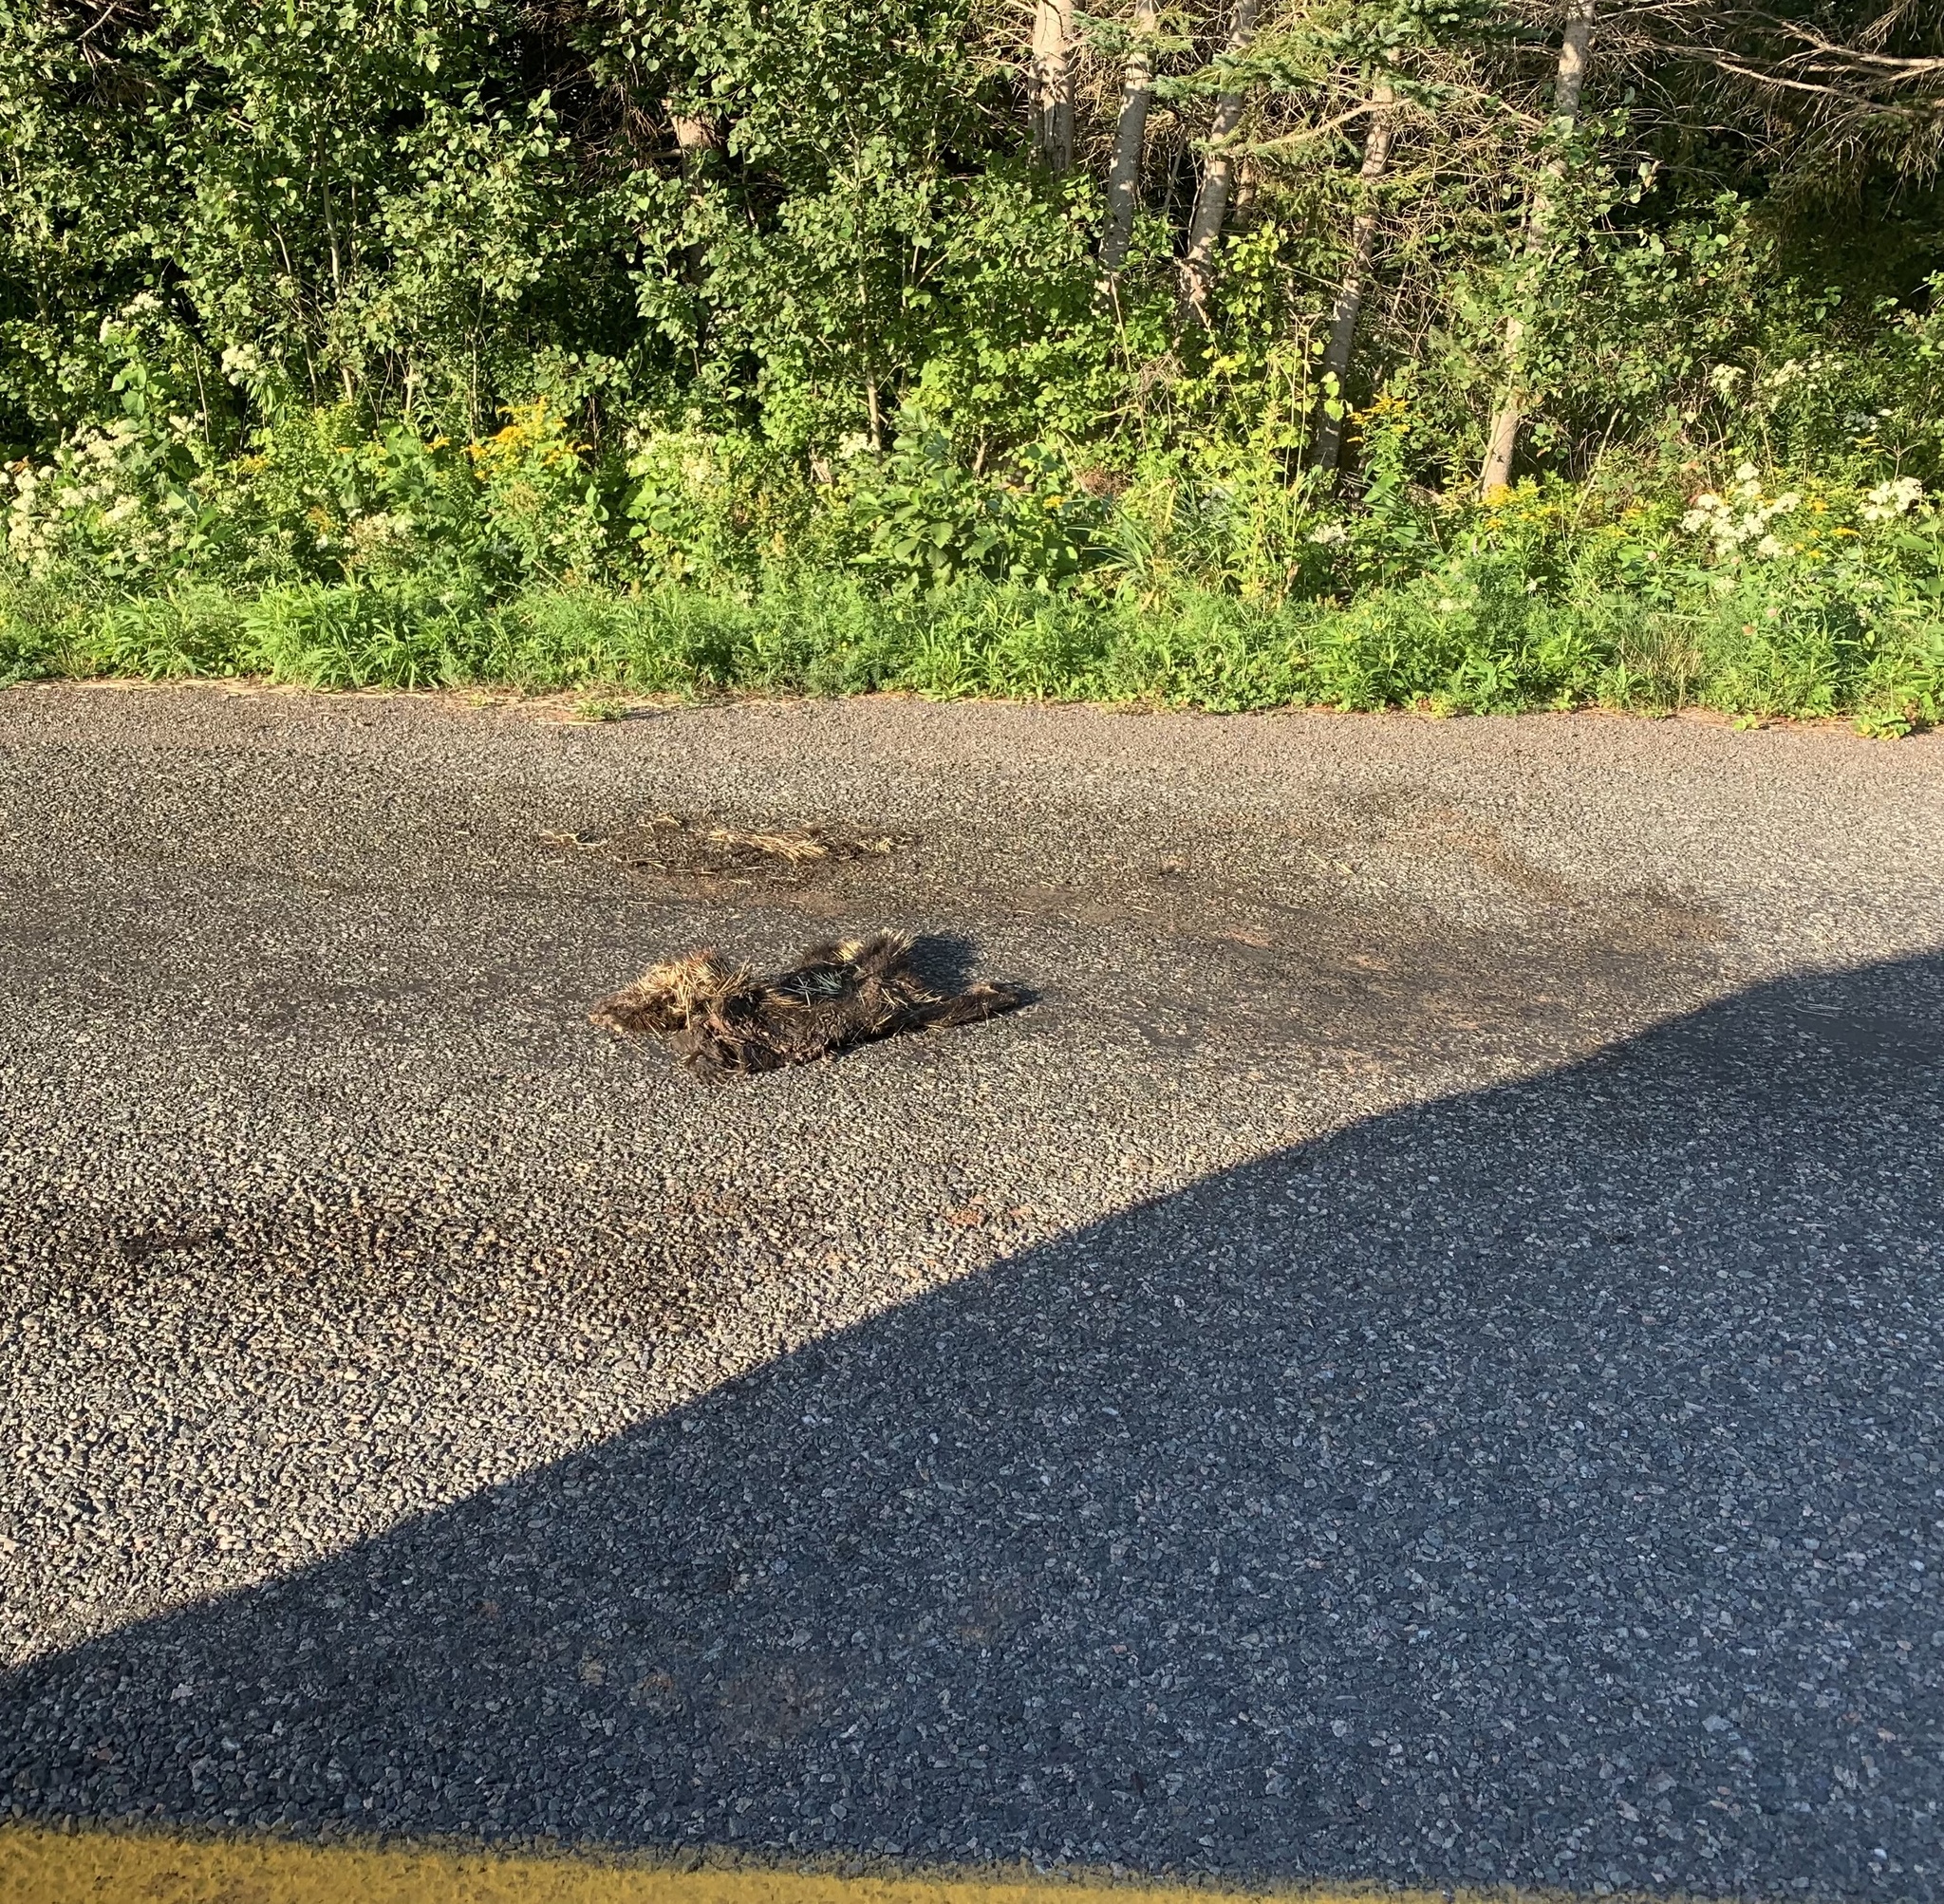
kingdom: Animalia
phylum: Chordata
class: Mammalia
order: Rodentia
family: Erethizontidae
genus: Erethizon
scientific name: Erethizon dorsatus
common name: North american porcupine
